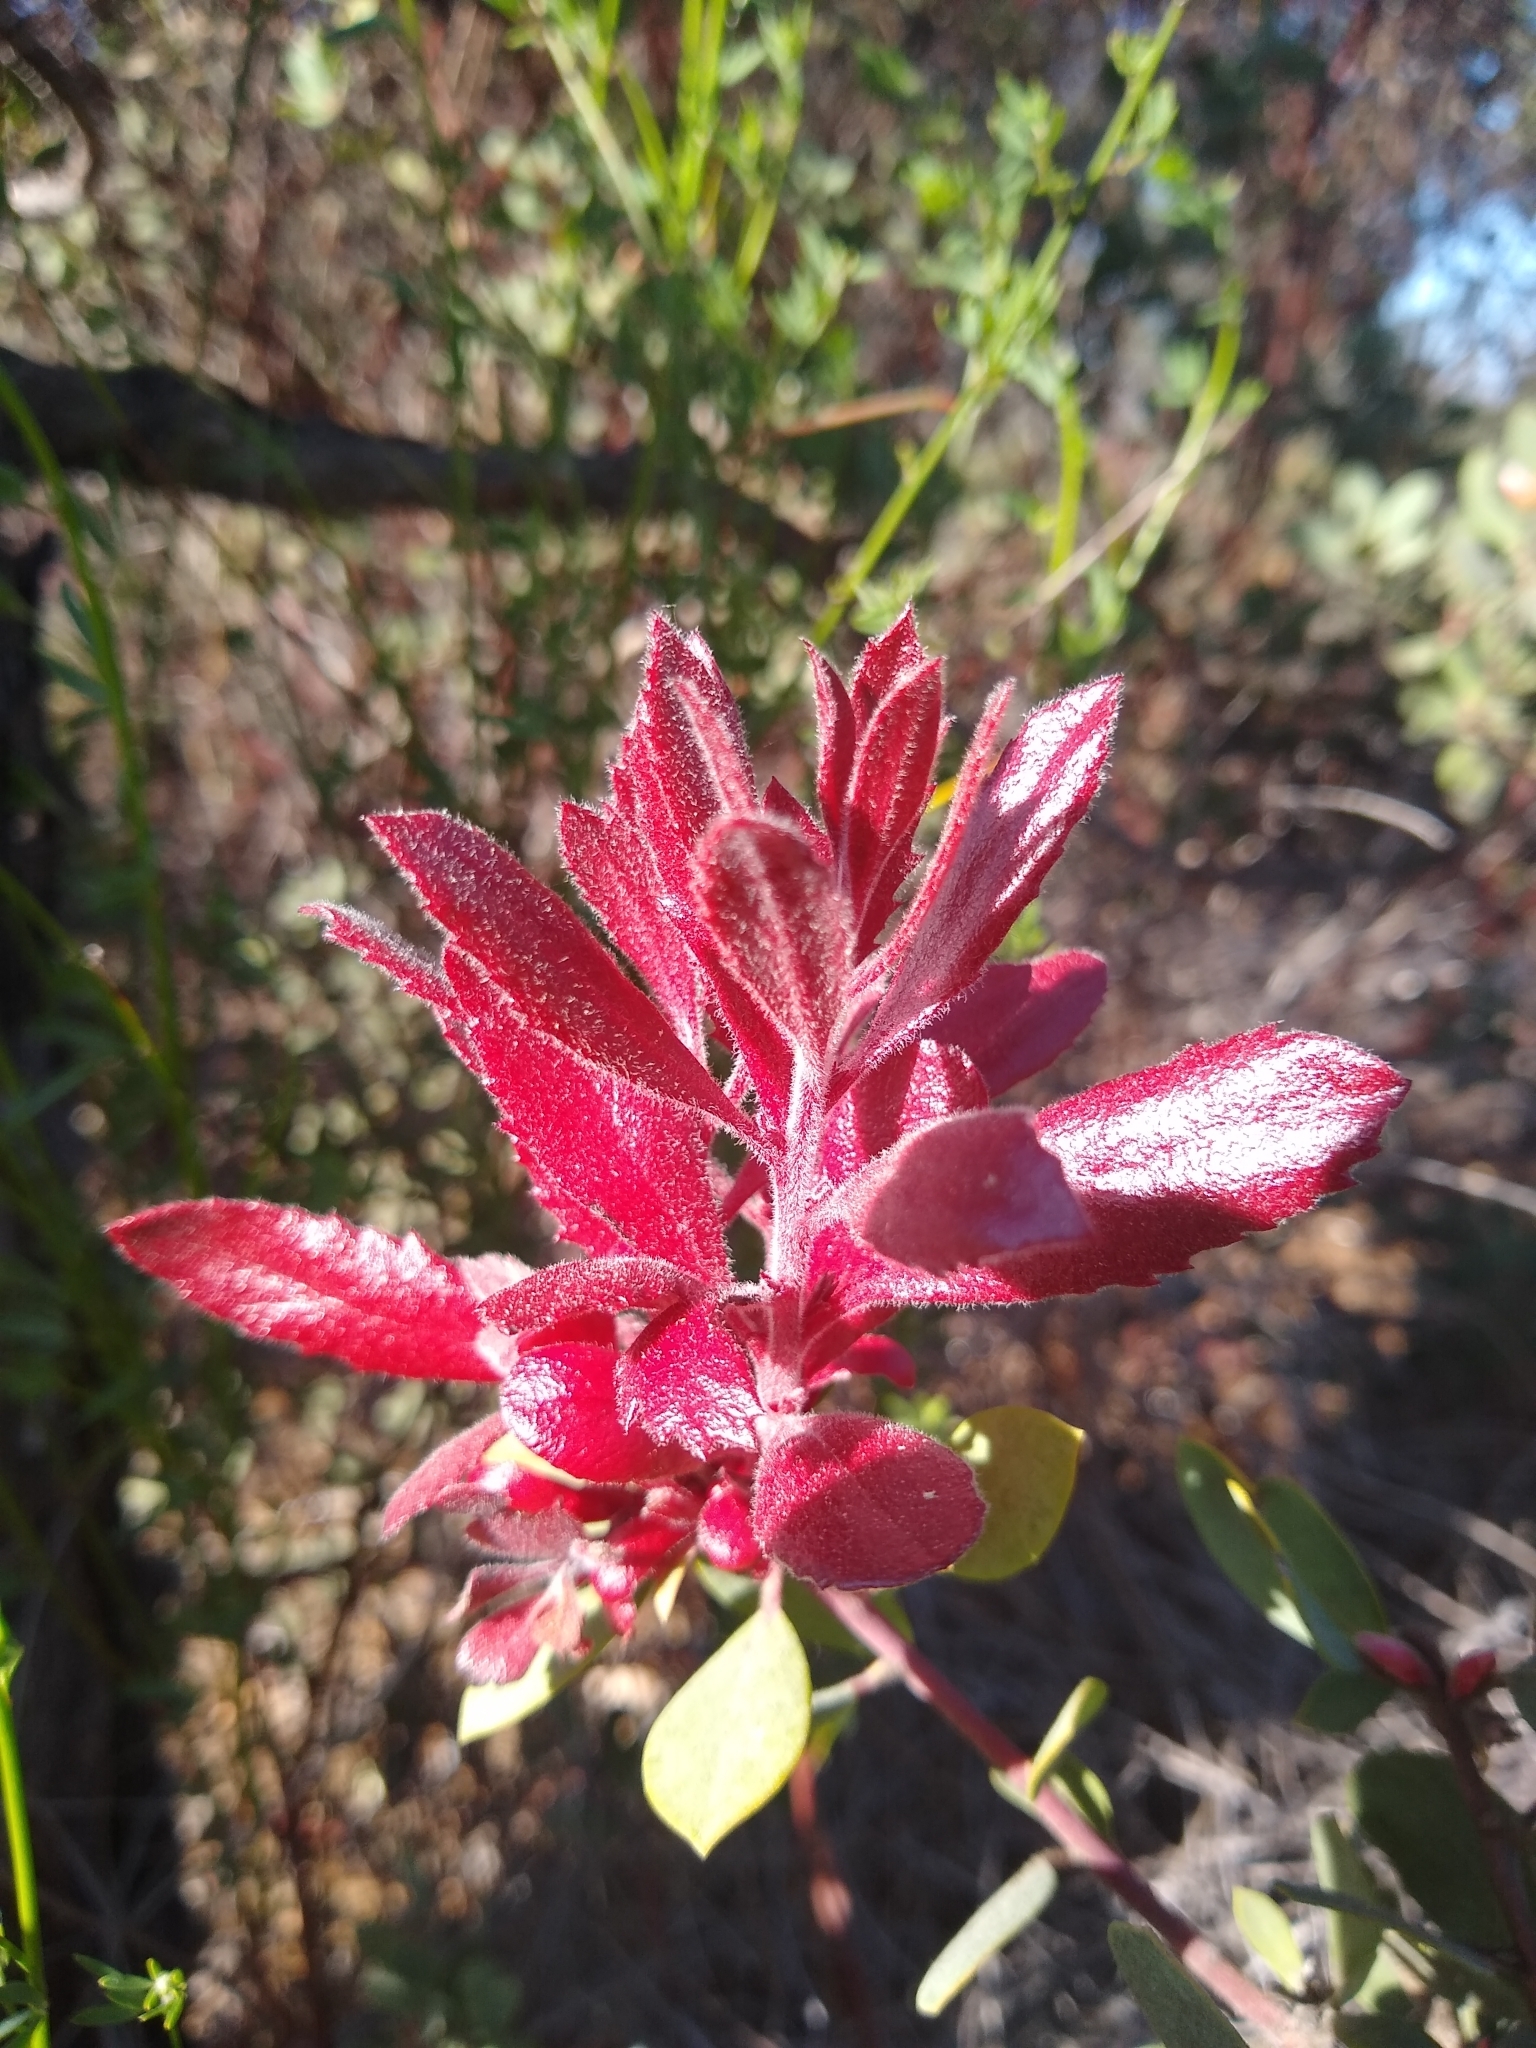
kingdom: Plantae
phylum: Tracheophyta
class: Magnoliopsida
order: Ericales
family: Ericaceae
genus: Arctostaphylos
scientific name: Arctostaphylos silvicola
